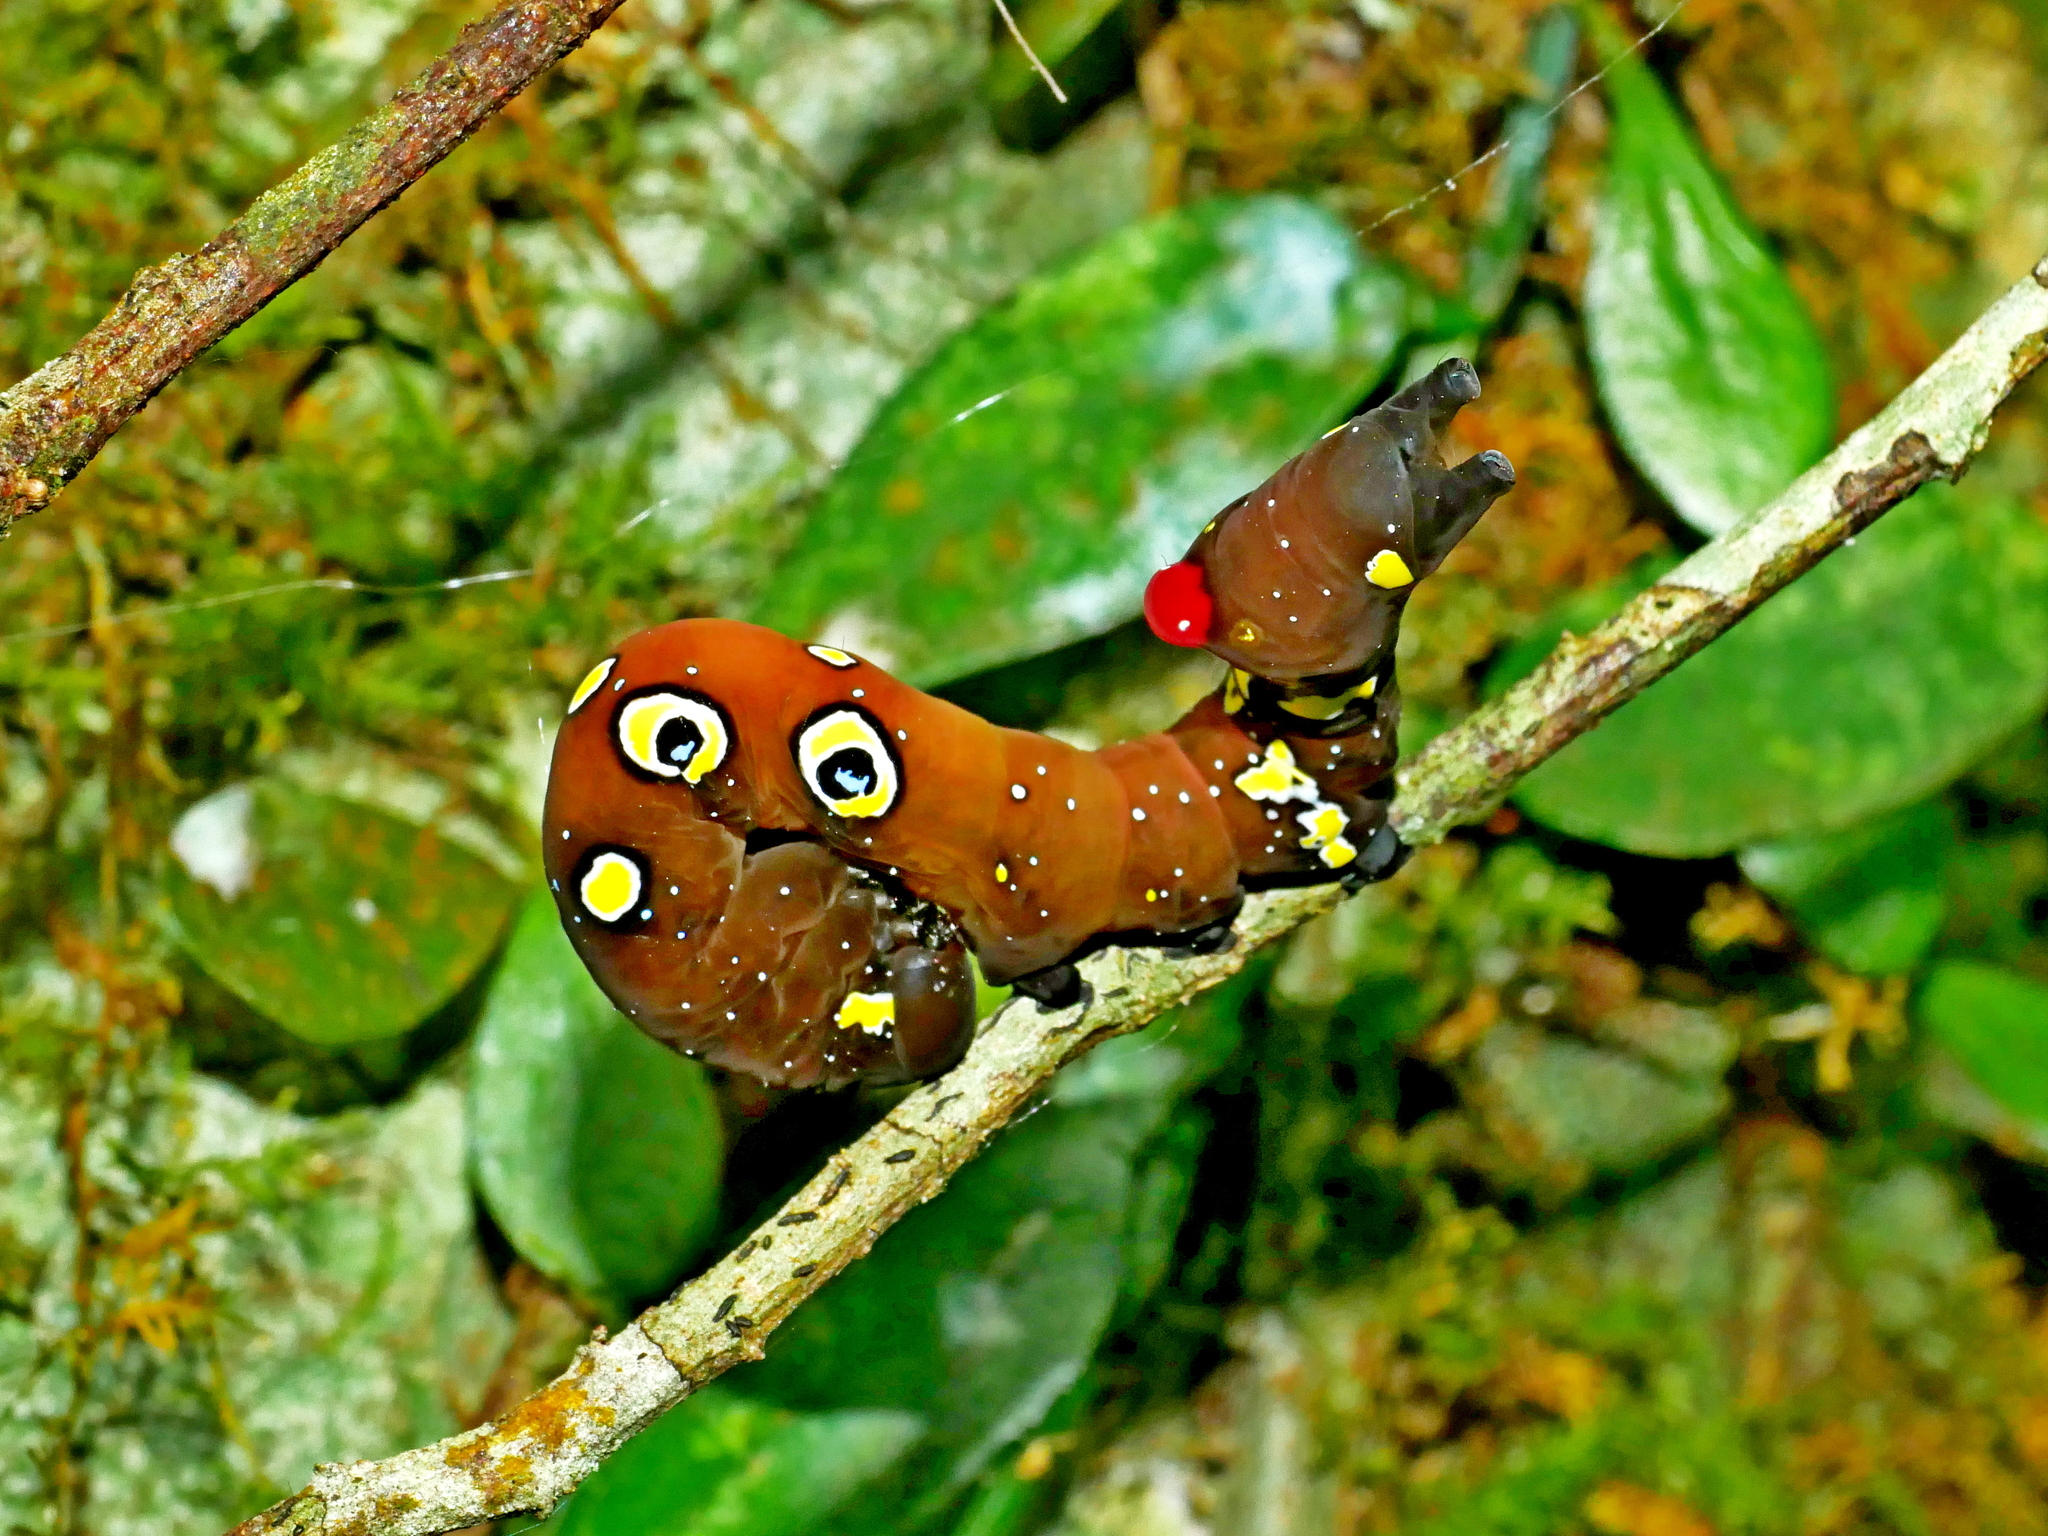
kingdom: Animalia
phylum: Arthropoda
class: Insecta
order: Lepidoptera
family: Erebidae
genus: Eudocima
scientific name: Eudocima homaena
